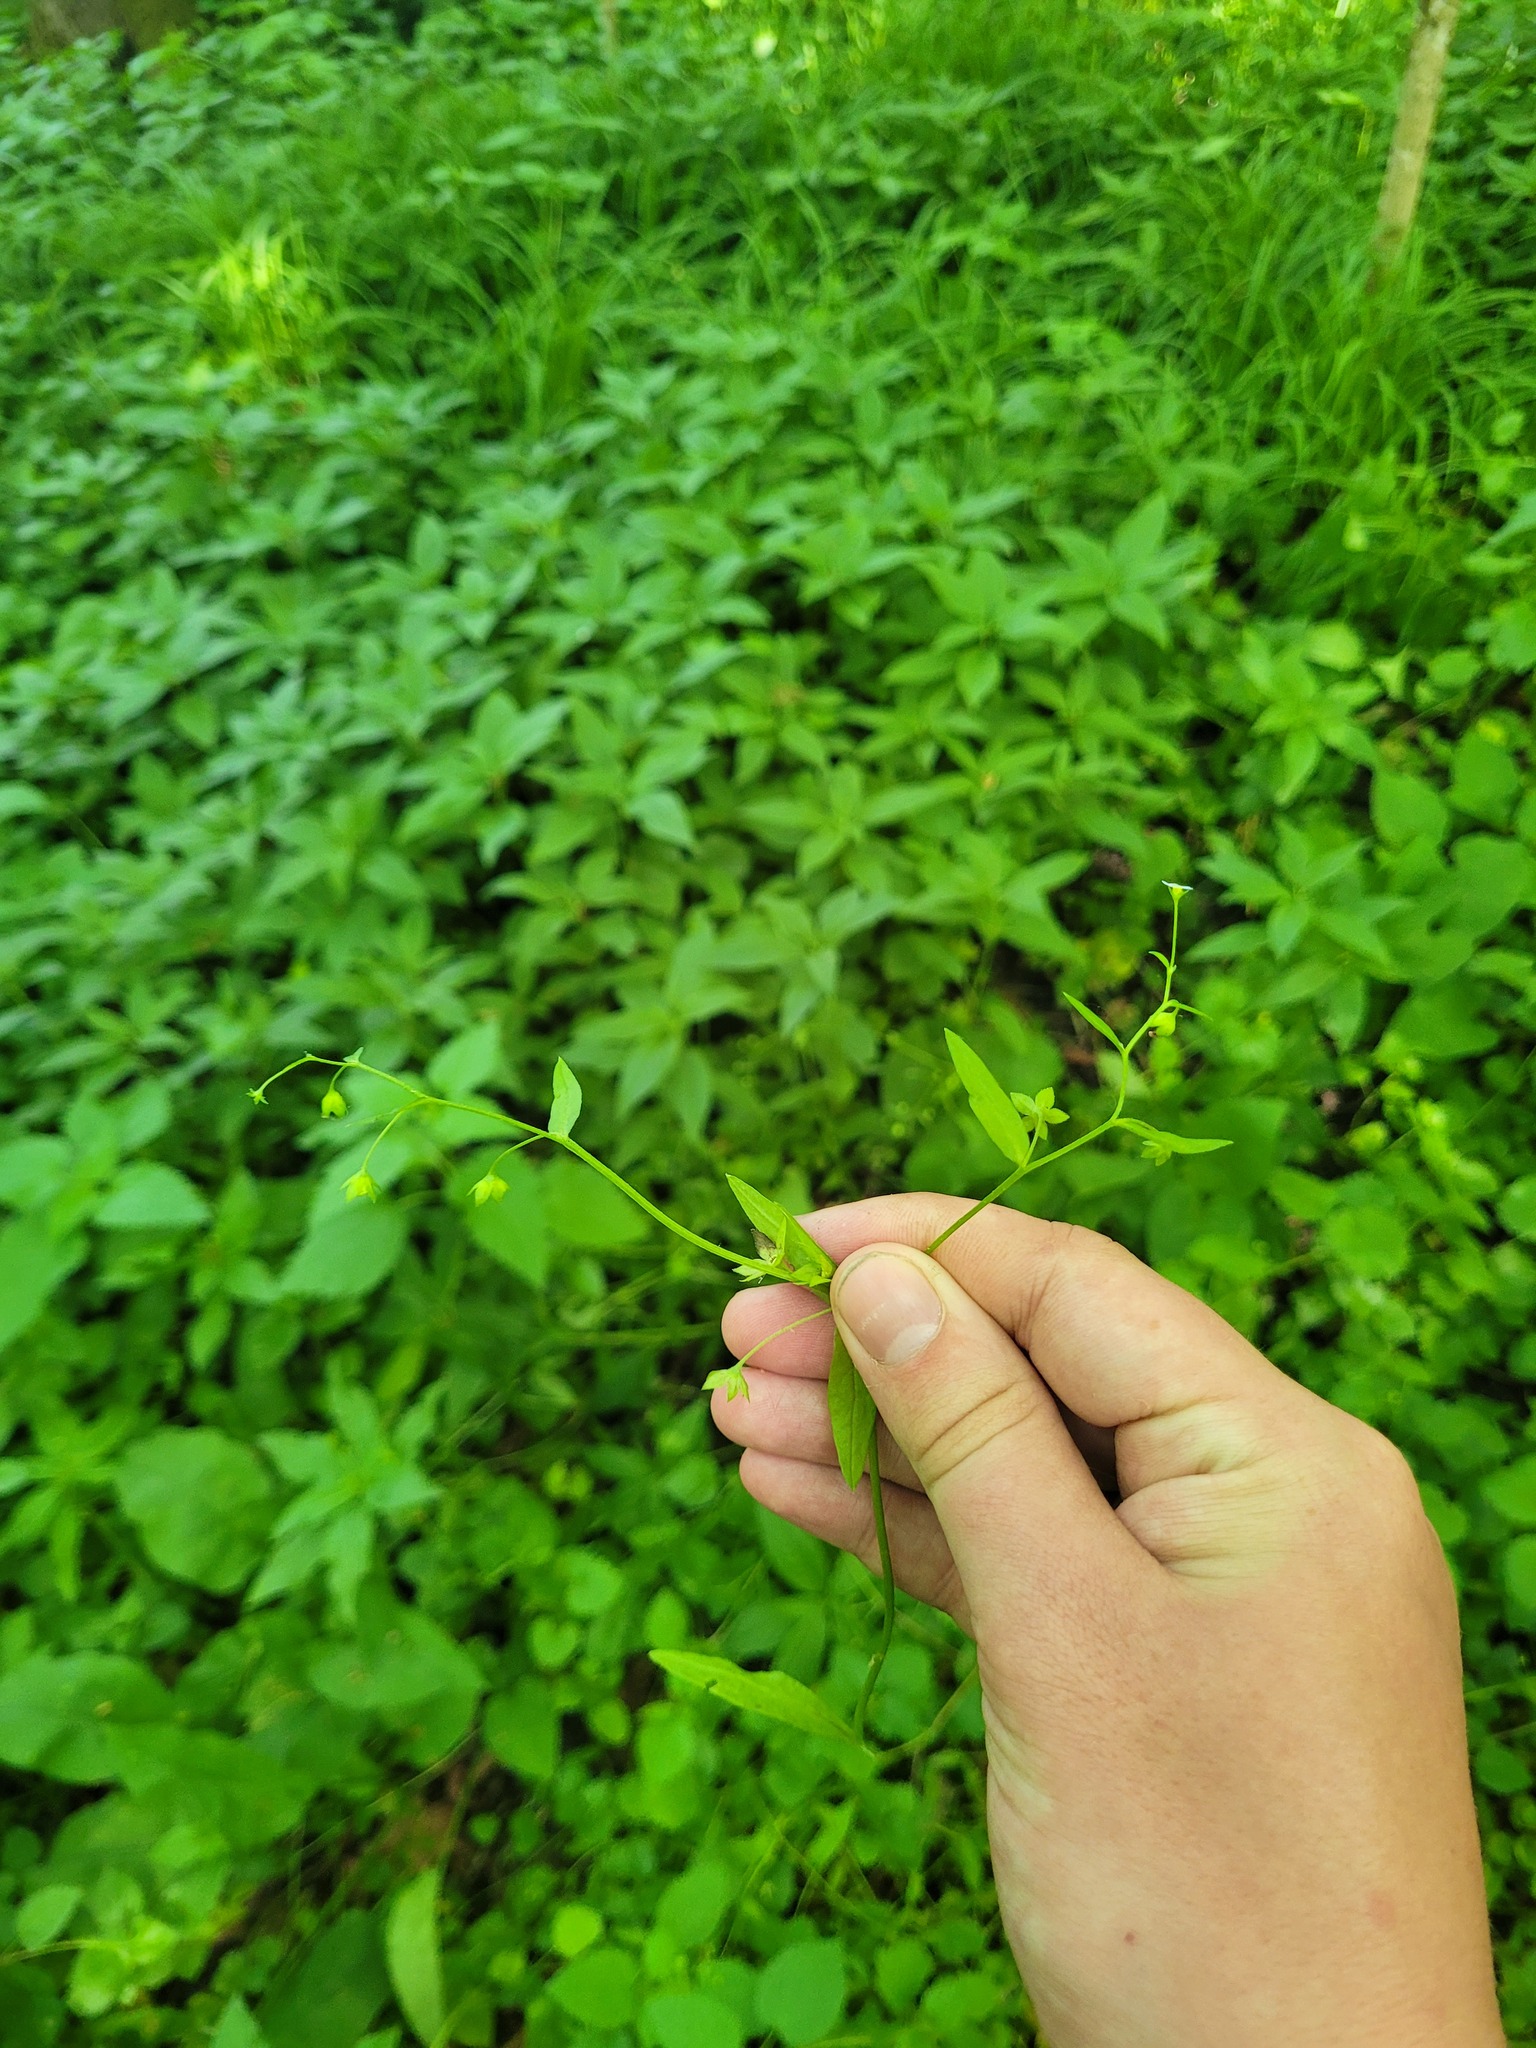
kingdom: Plantae
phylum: Tracheophyta
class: Magnoliopsida
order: Boraginales
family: Boraginaceae
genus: Memoremea
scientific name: Memoremea scorpioides
